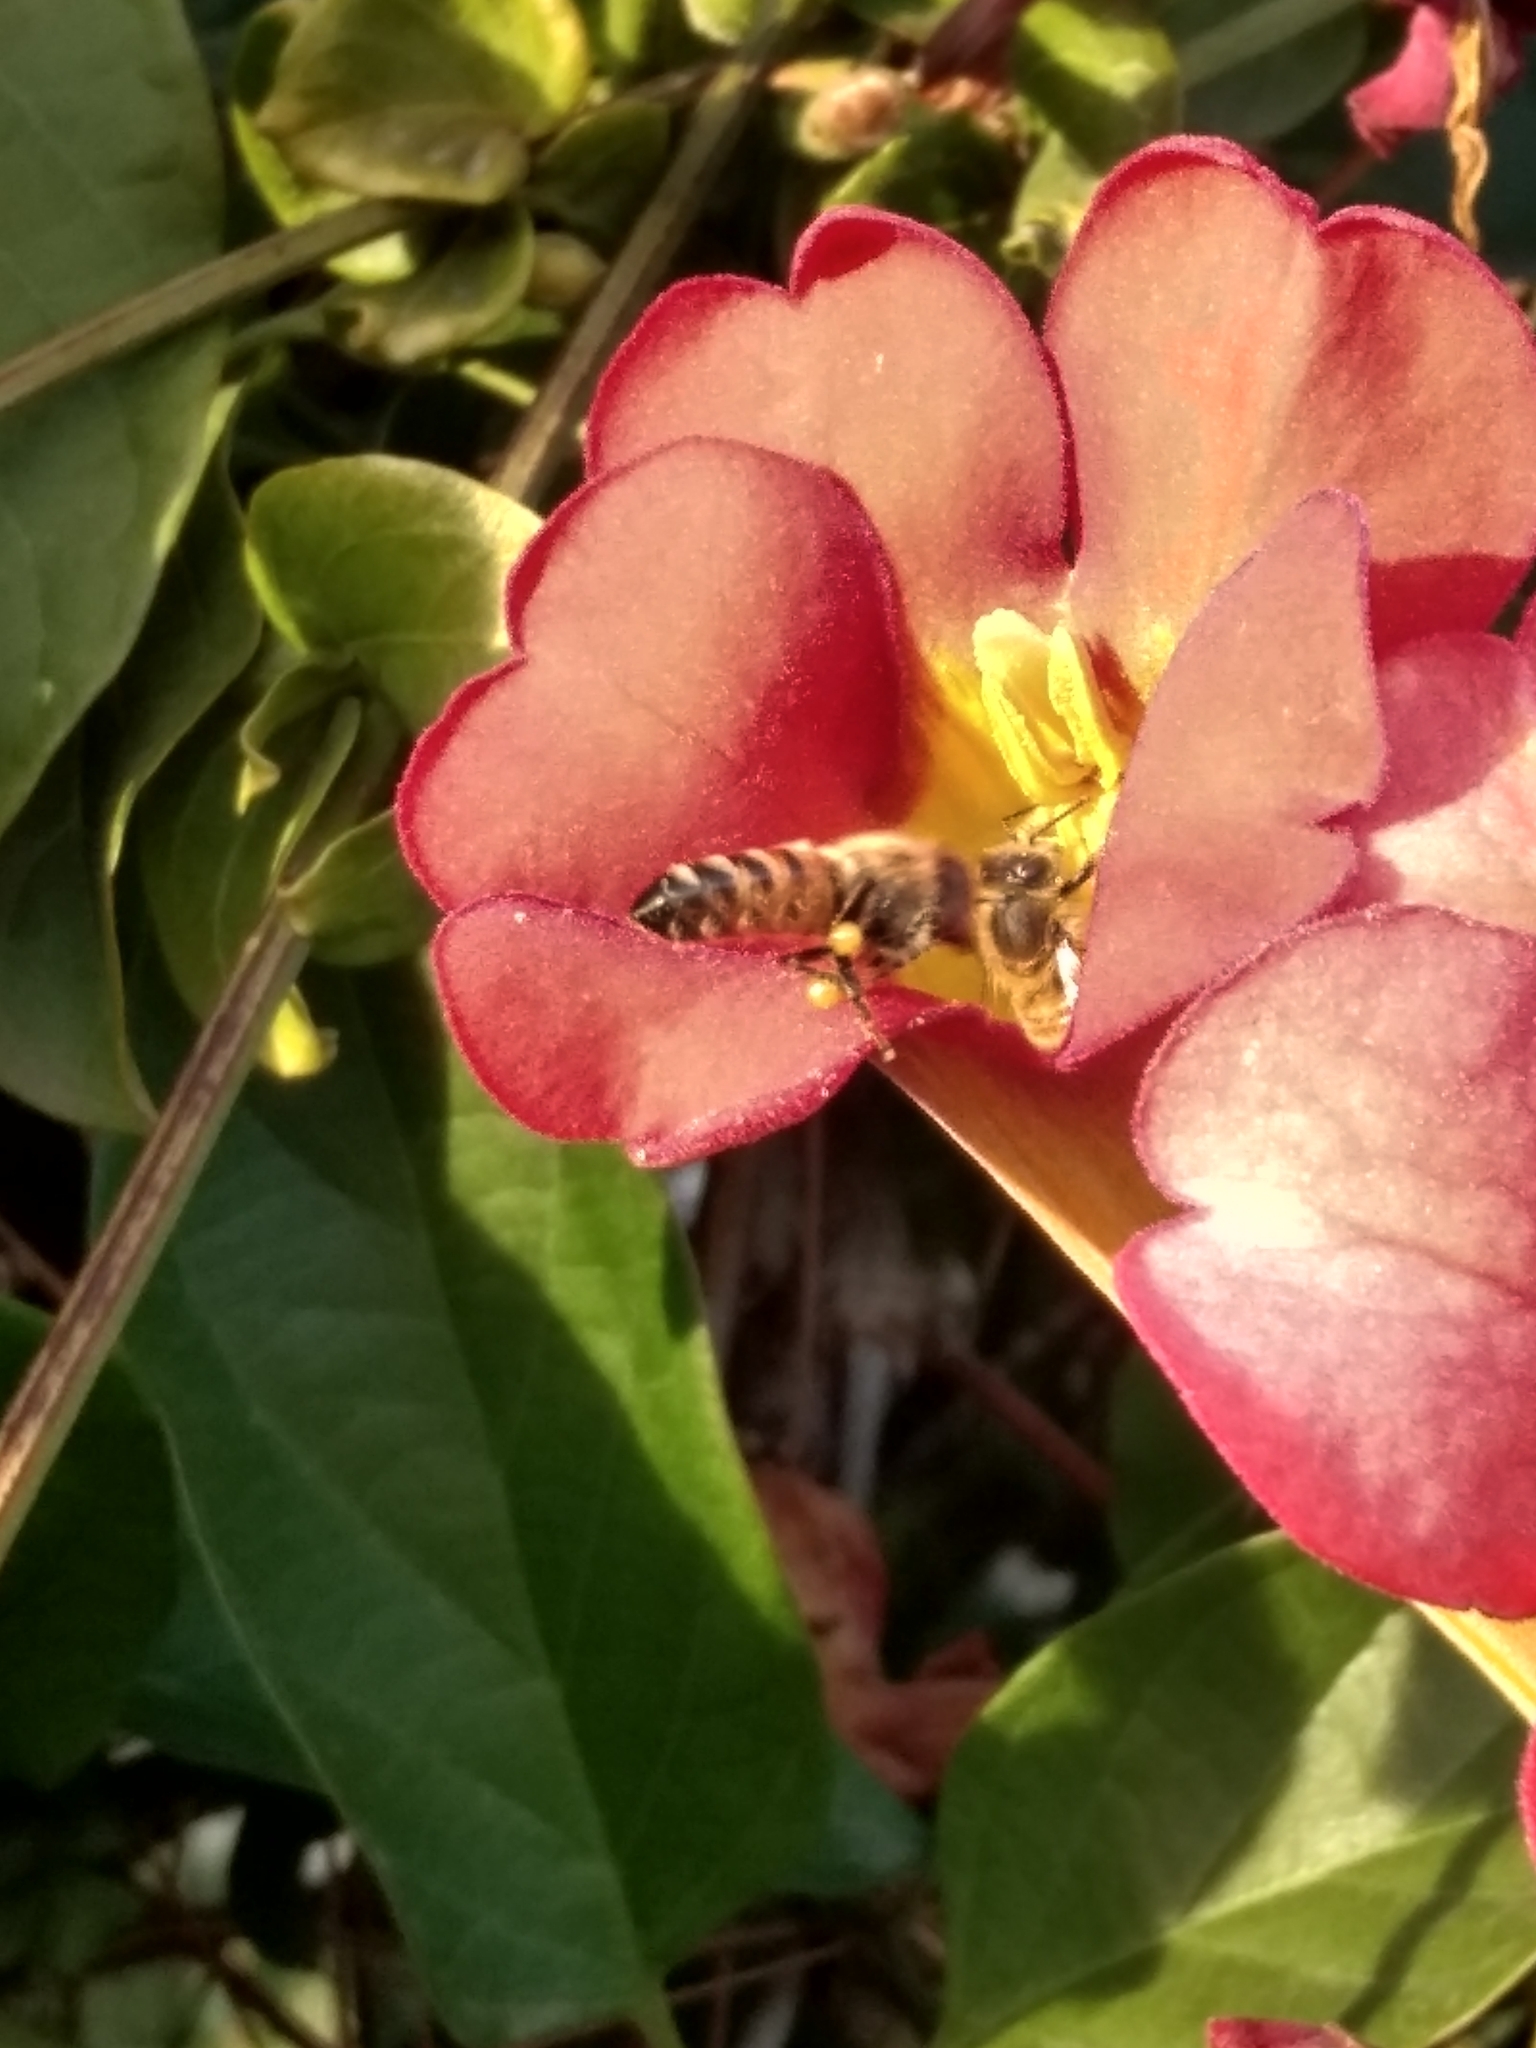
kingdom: Animalia
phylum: Arthropoda
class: Insecta
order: Hymenoptera
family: Apidae
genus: Apis
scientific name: Apis mellifera
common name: Honey bee
